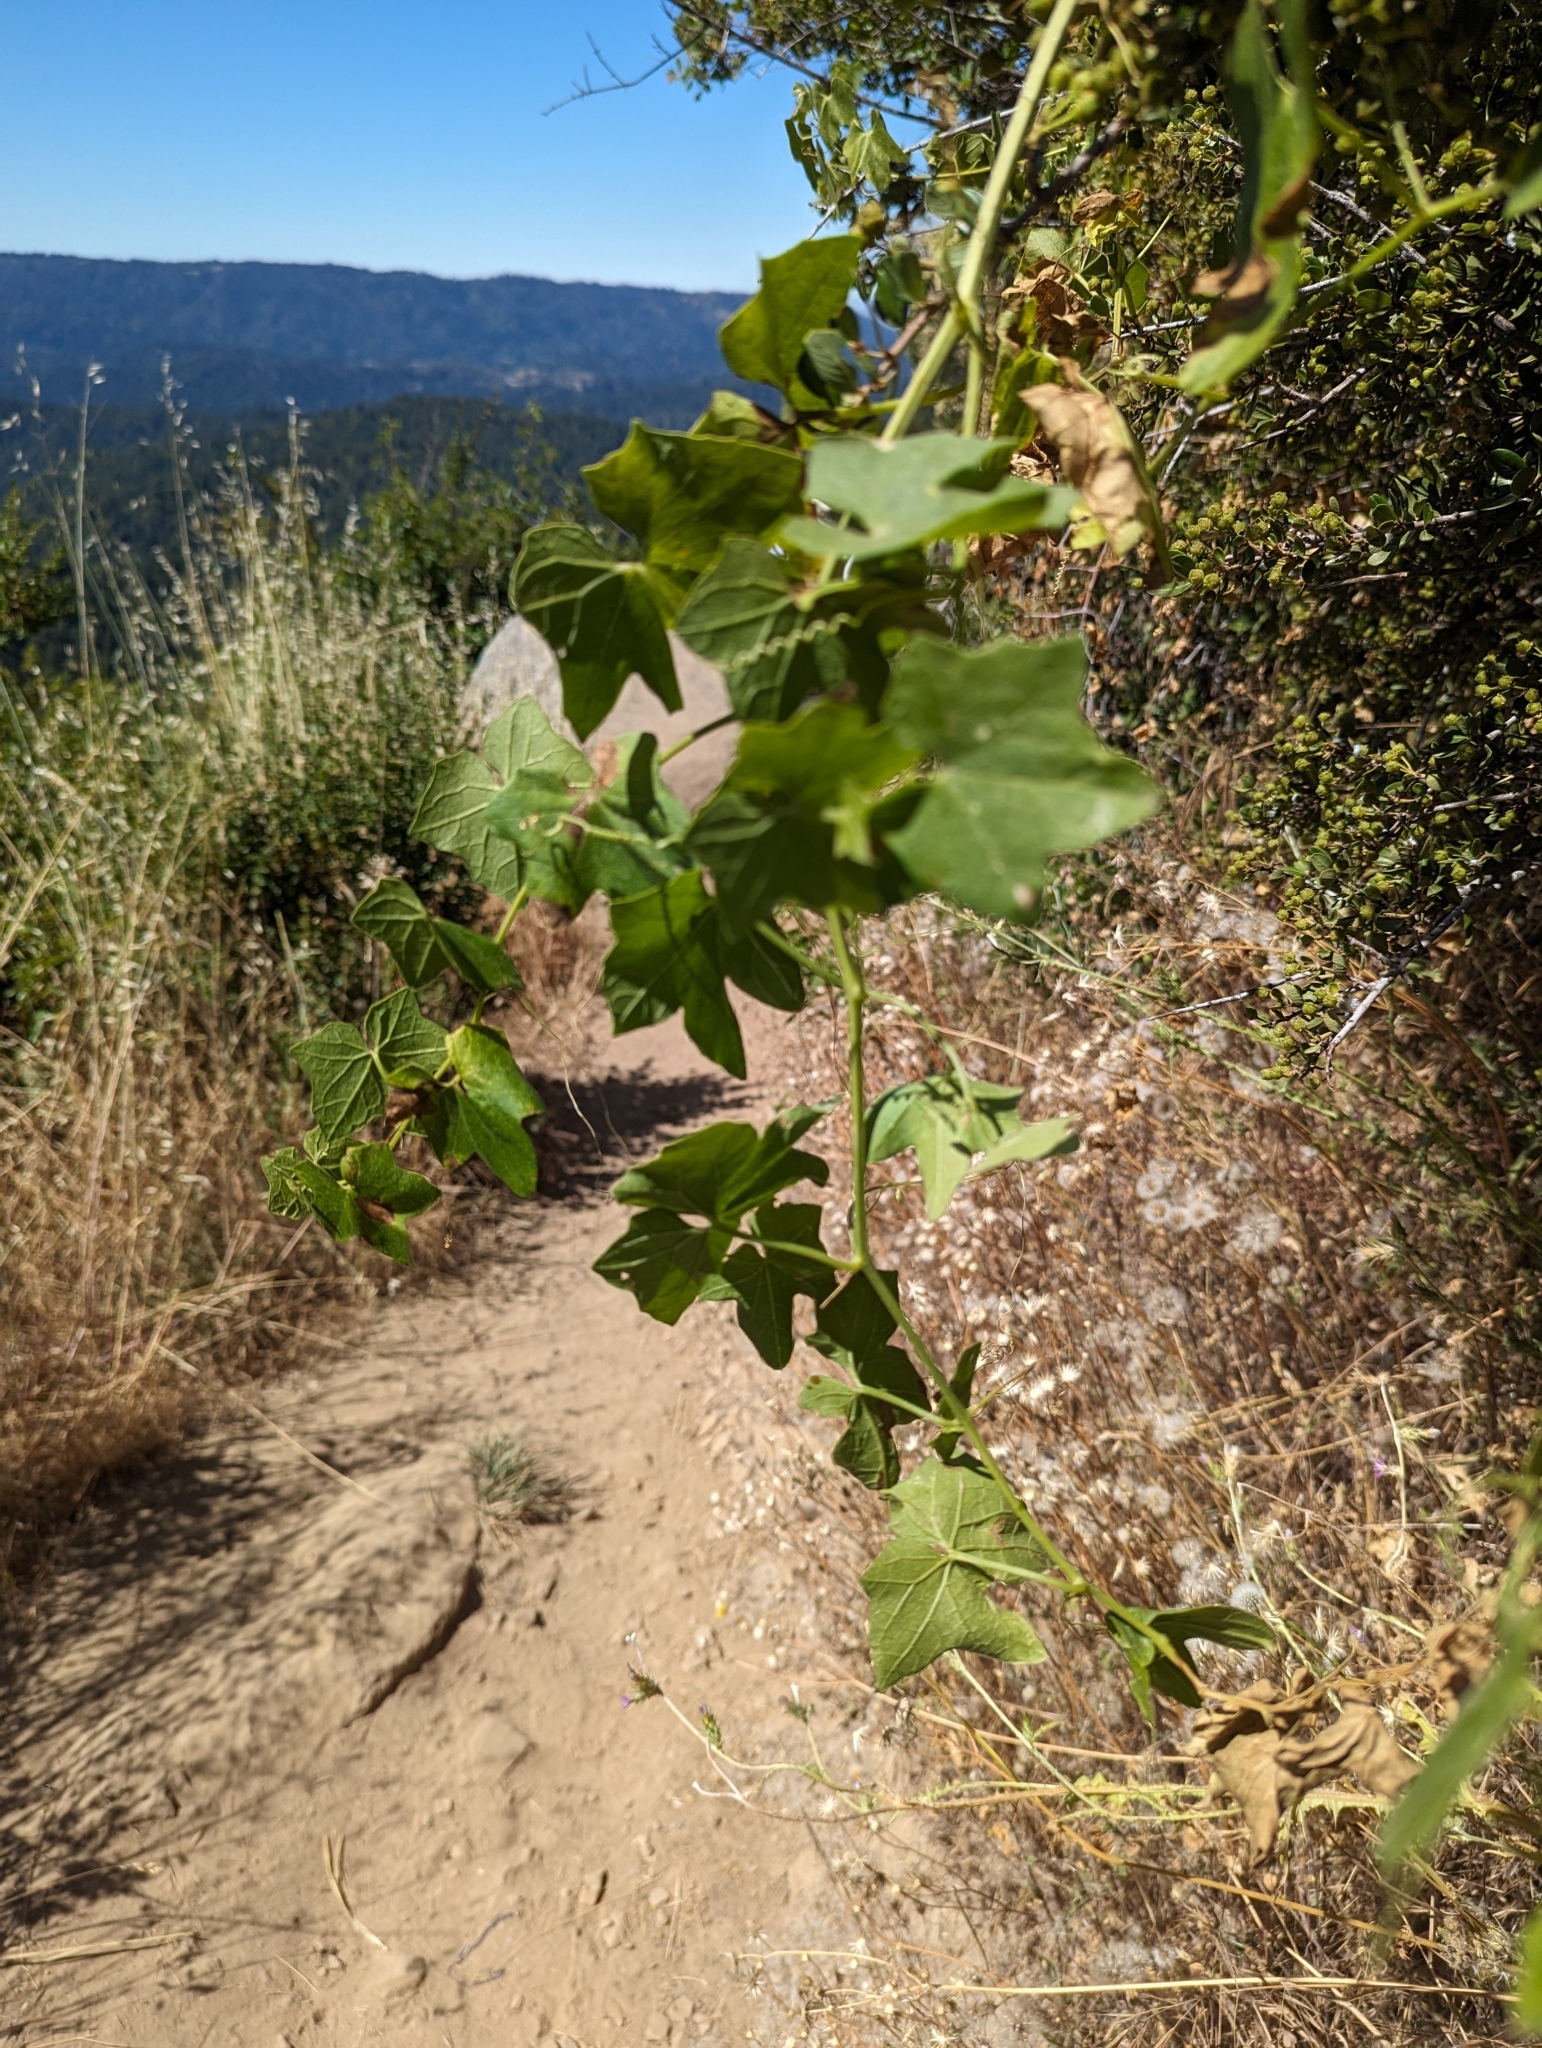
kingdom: Plantae
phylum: Tracheophyta
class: Magnoliopsida
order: Cucurbitales
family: Cucurbitaceae
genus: Marah
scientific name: Marah fabacea
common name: California manroot
